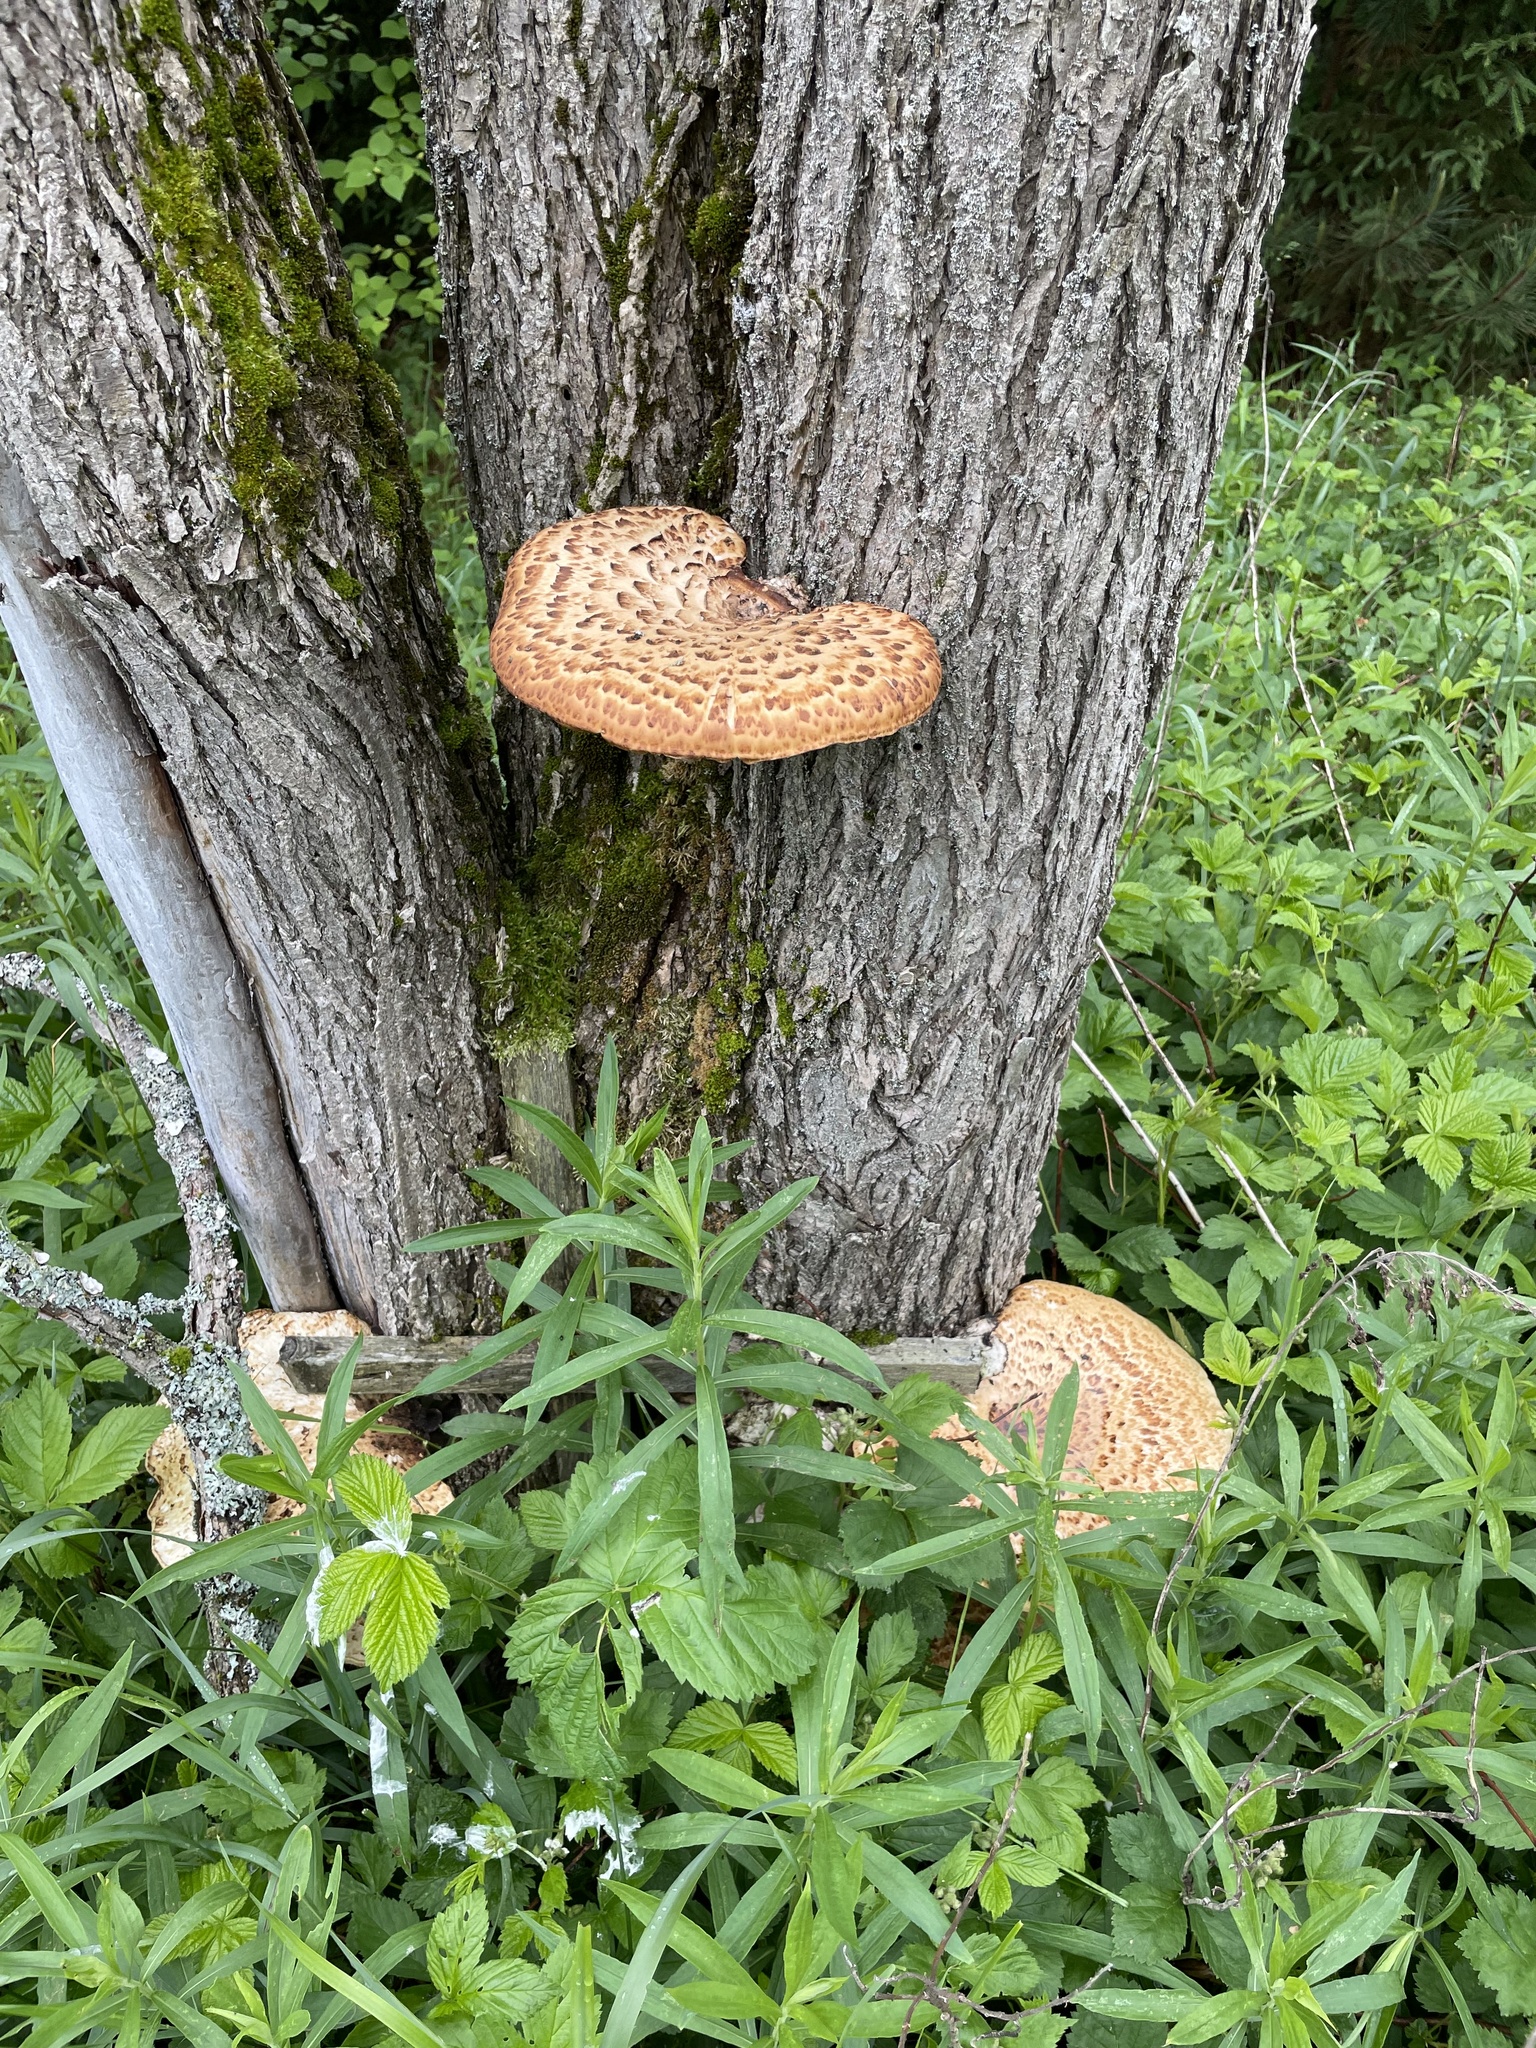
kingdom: Fungi
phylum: Basidiomycota
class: Agaricomycetes
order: Polyporales
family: Polyporaceae
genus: Cerioporus
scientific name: Cerioporus squamosus
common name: Dryad's saddle
